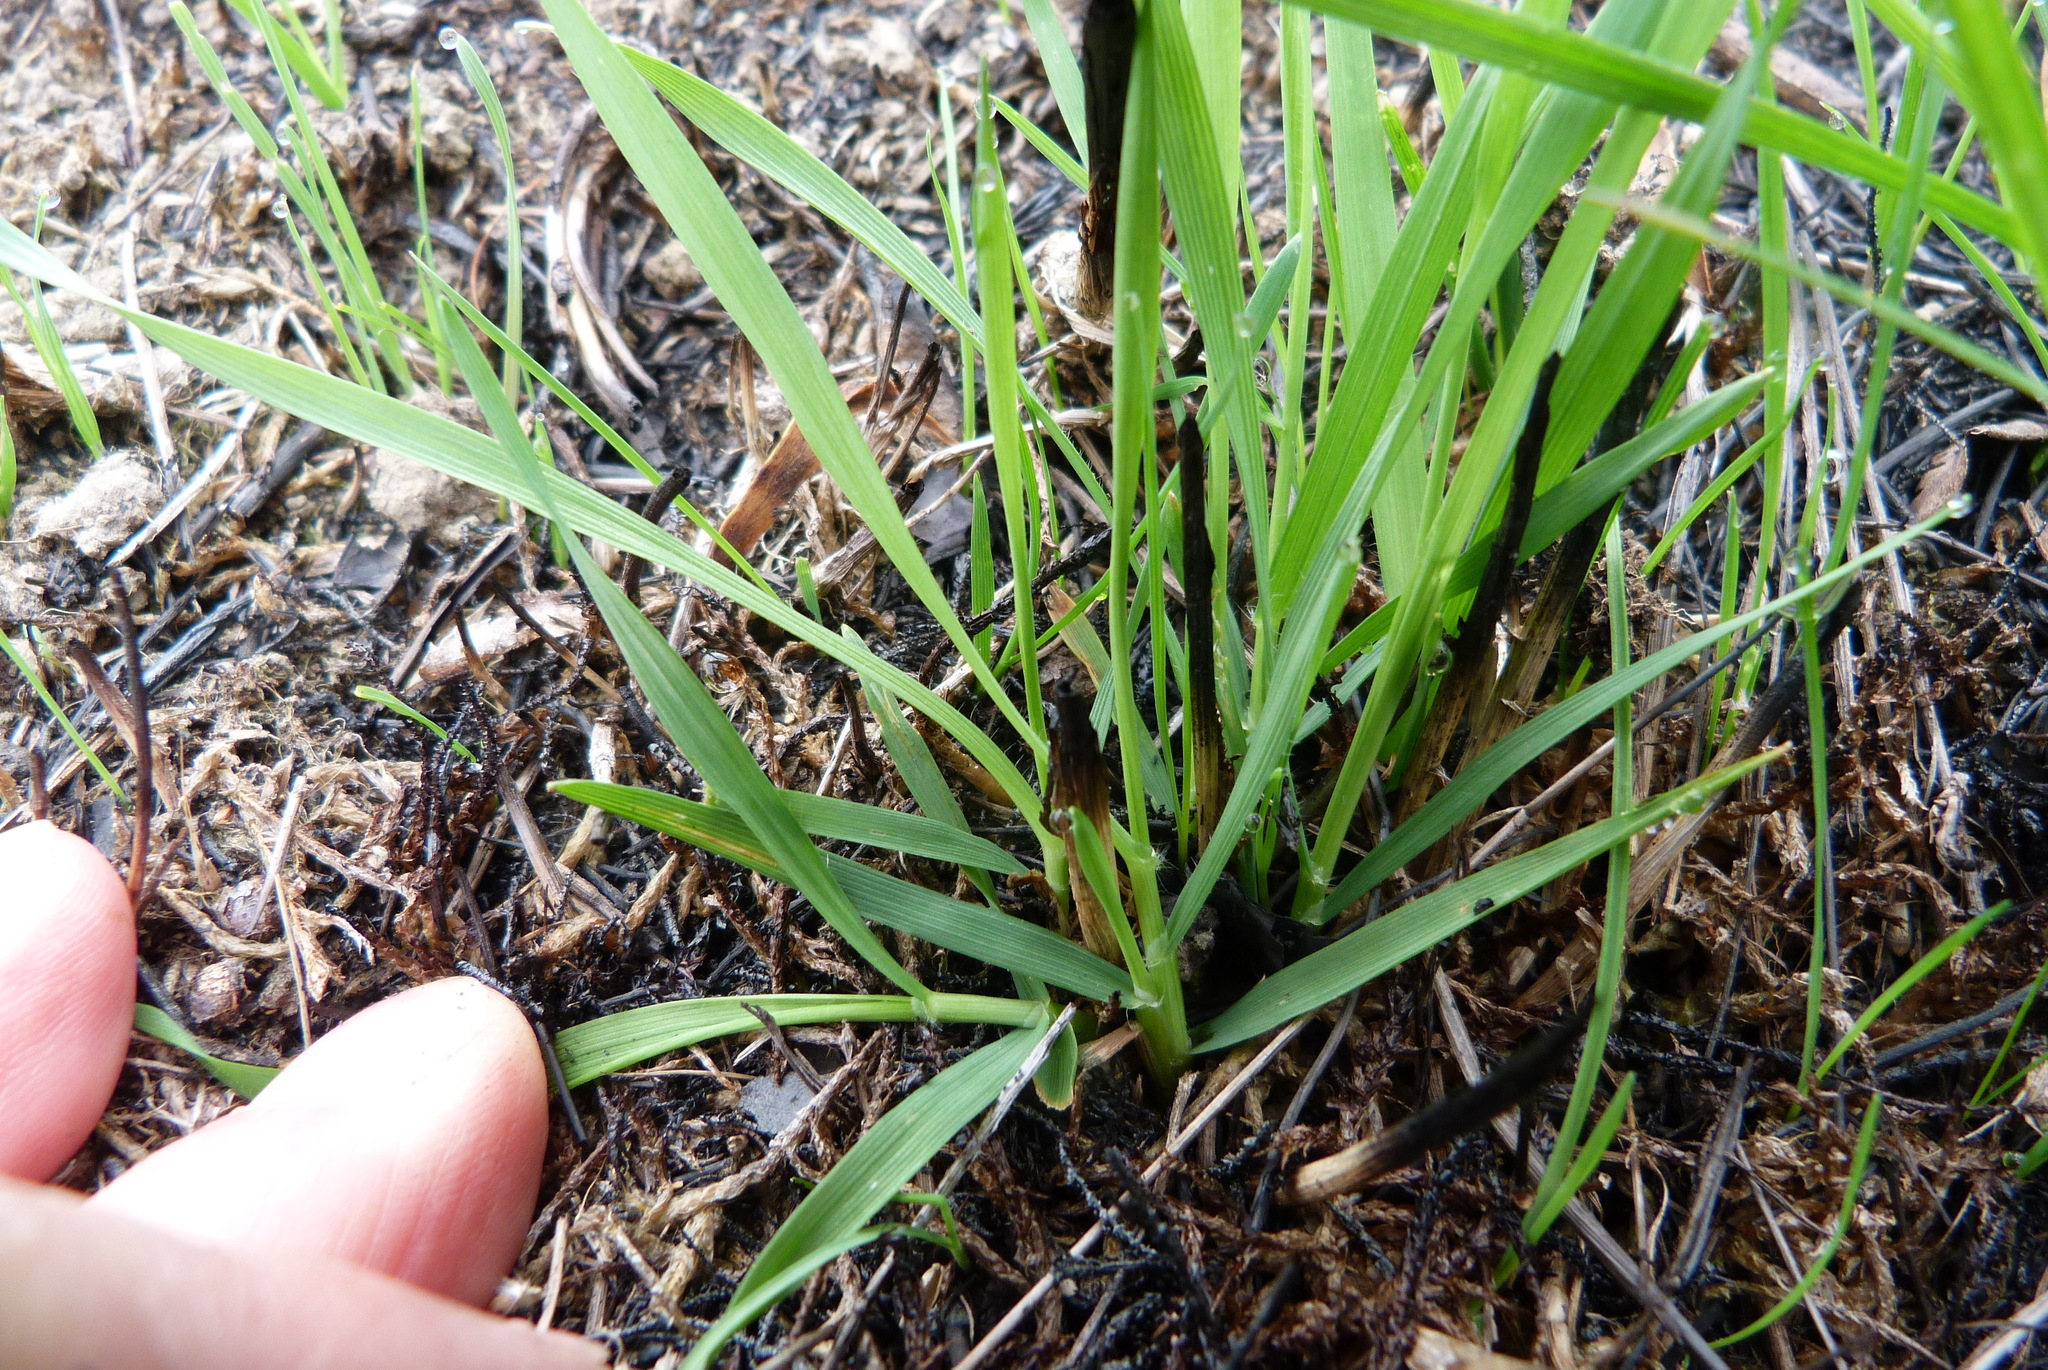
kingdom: Plantae
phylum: Tracheophyta
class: Liliopsida
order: Poales
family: Poaceae
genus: Anthoxanthum
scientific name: Anthoxanthum odoratum
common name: Sweet vernalgrass
